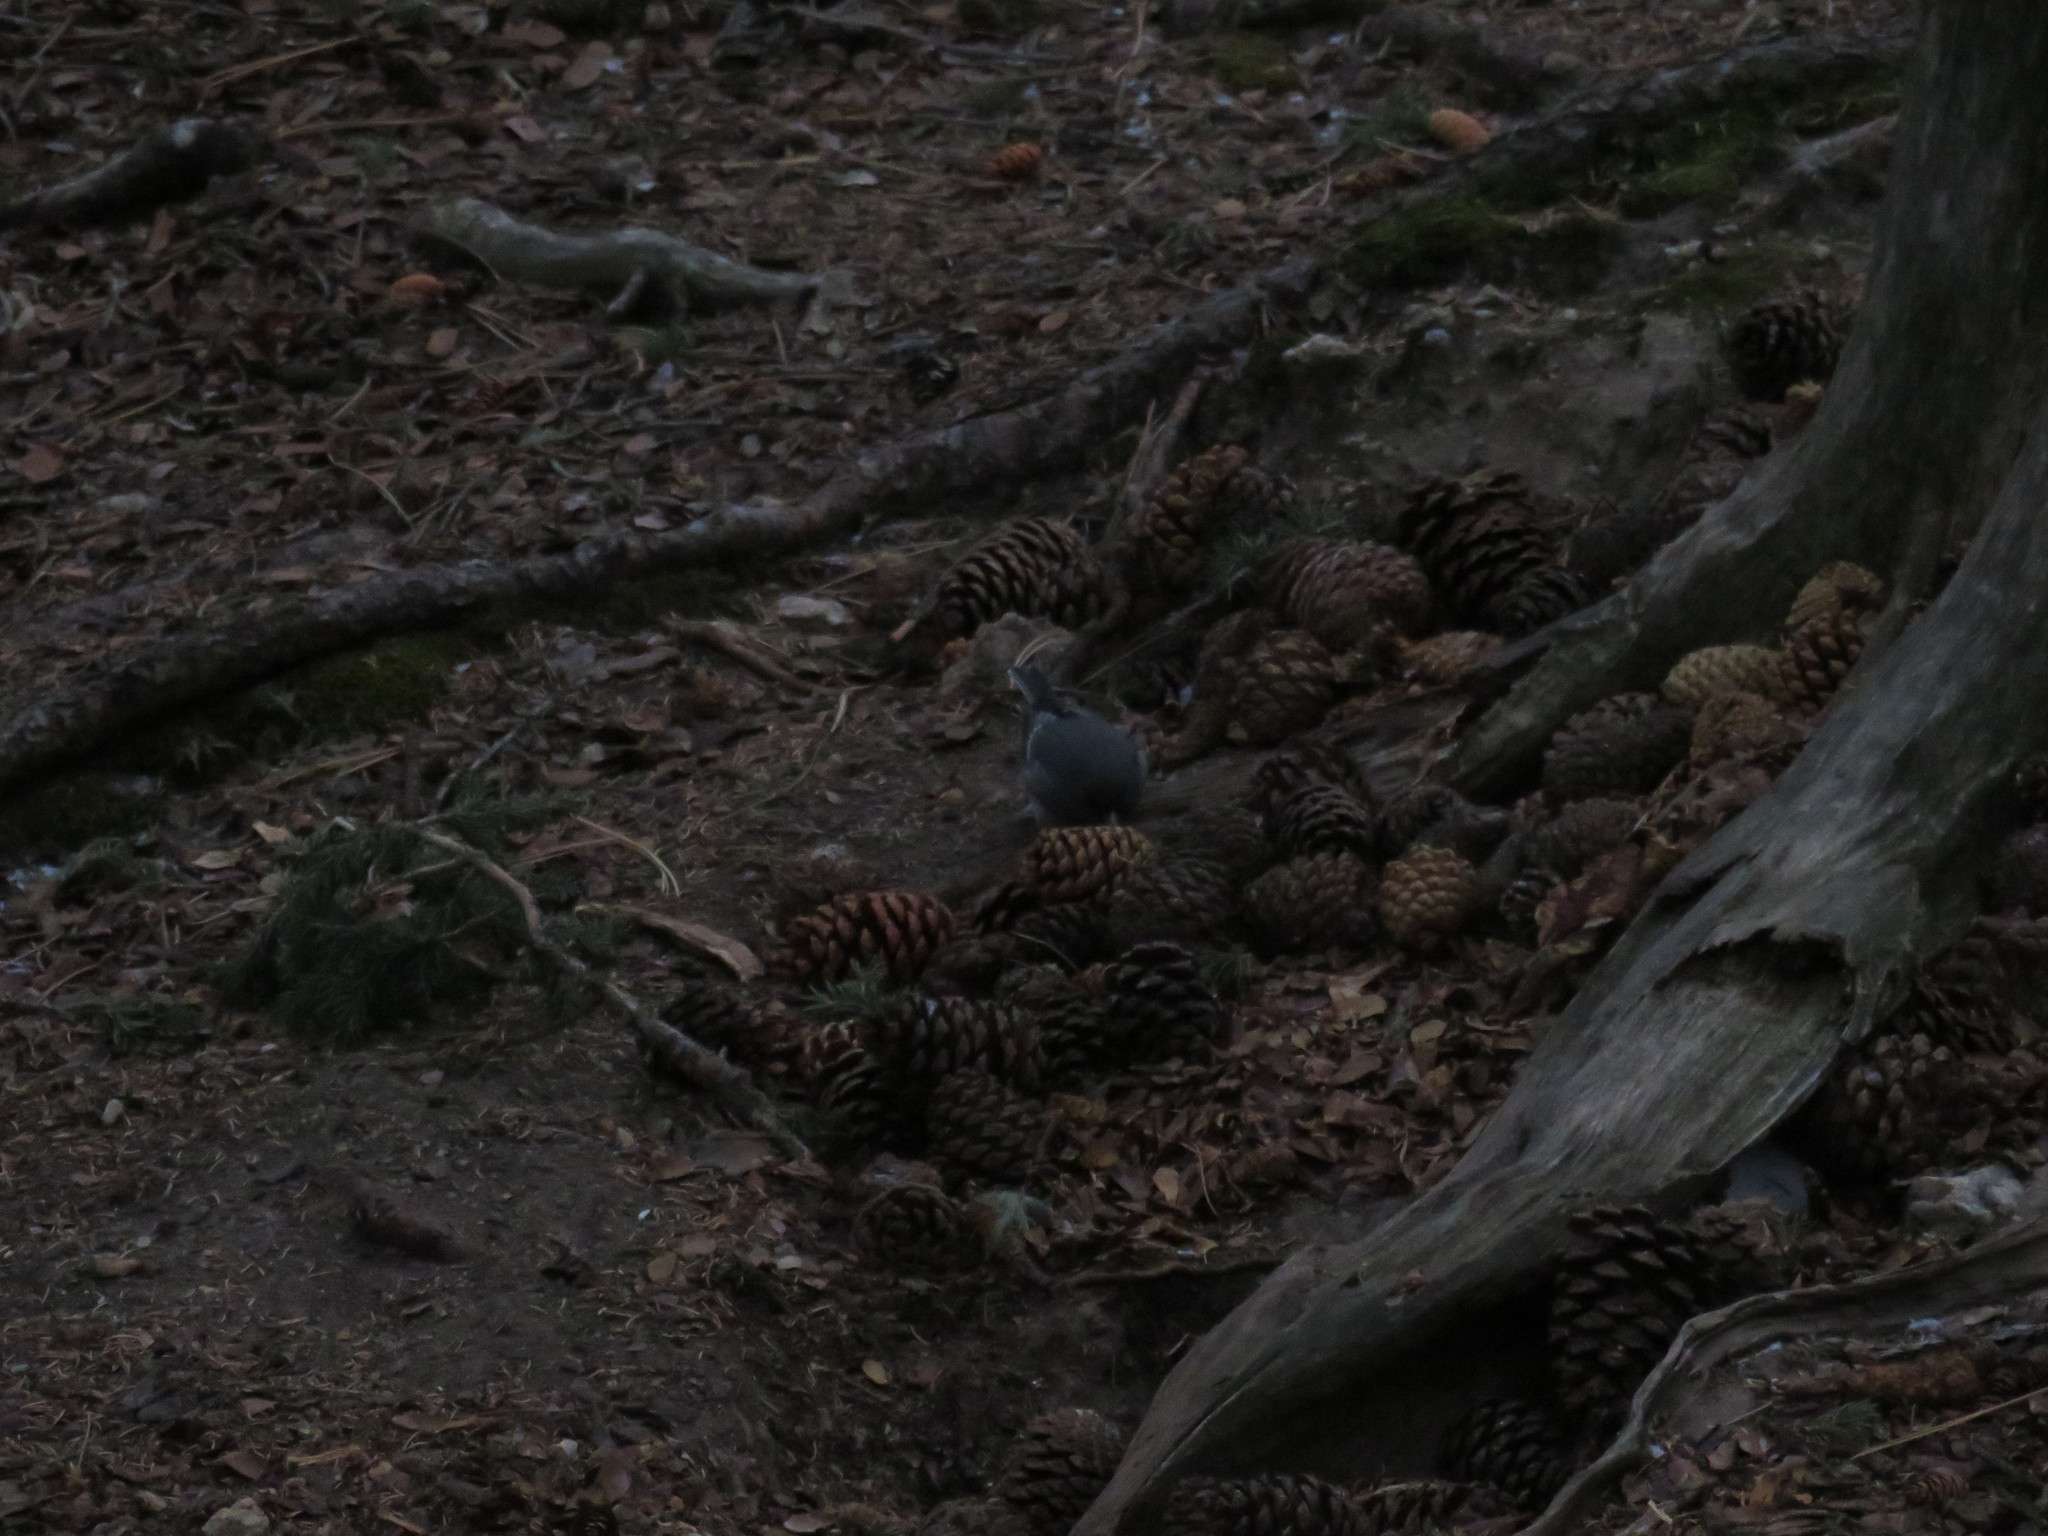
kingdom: Animalia
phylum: Chordata
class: Aves
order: Passeriformes
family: Passerellidae
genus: Junco
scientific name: Junco hyemalis
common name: Dark-eyed junco
